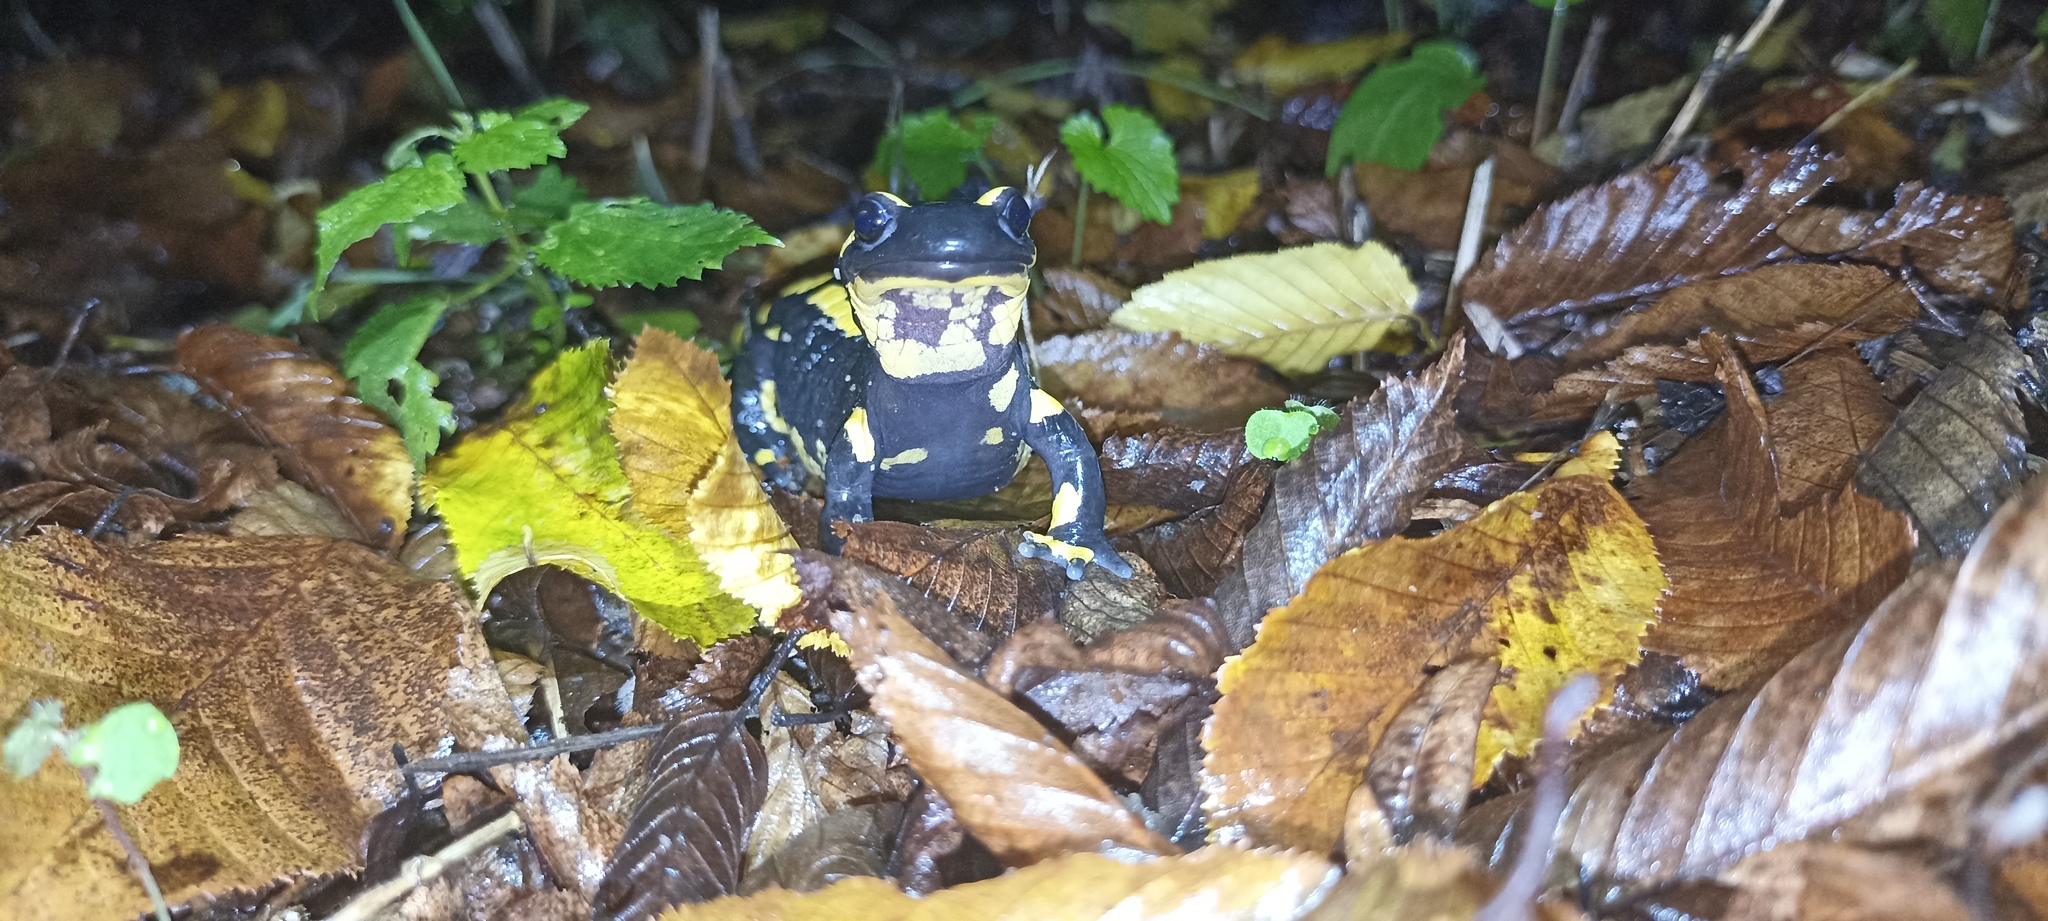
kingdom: Animalia
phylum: Chordata
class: Amphibia
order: Caudata
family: Salamandridae
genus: Salamandra
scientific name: Salamandra salamandra
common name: Fire salamander
